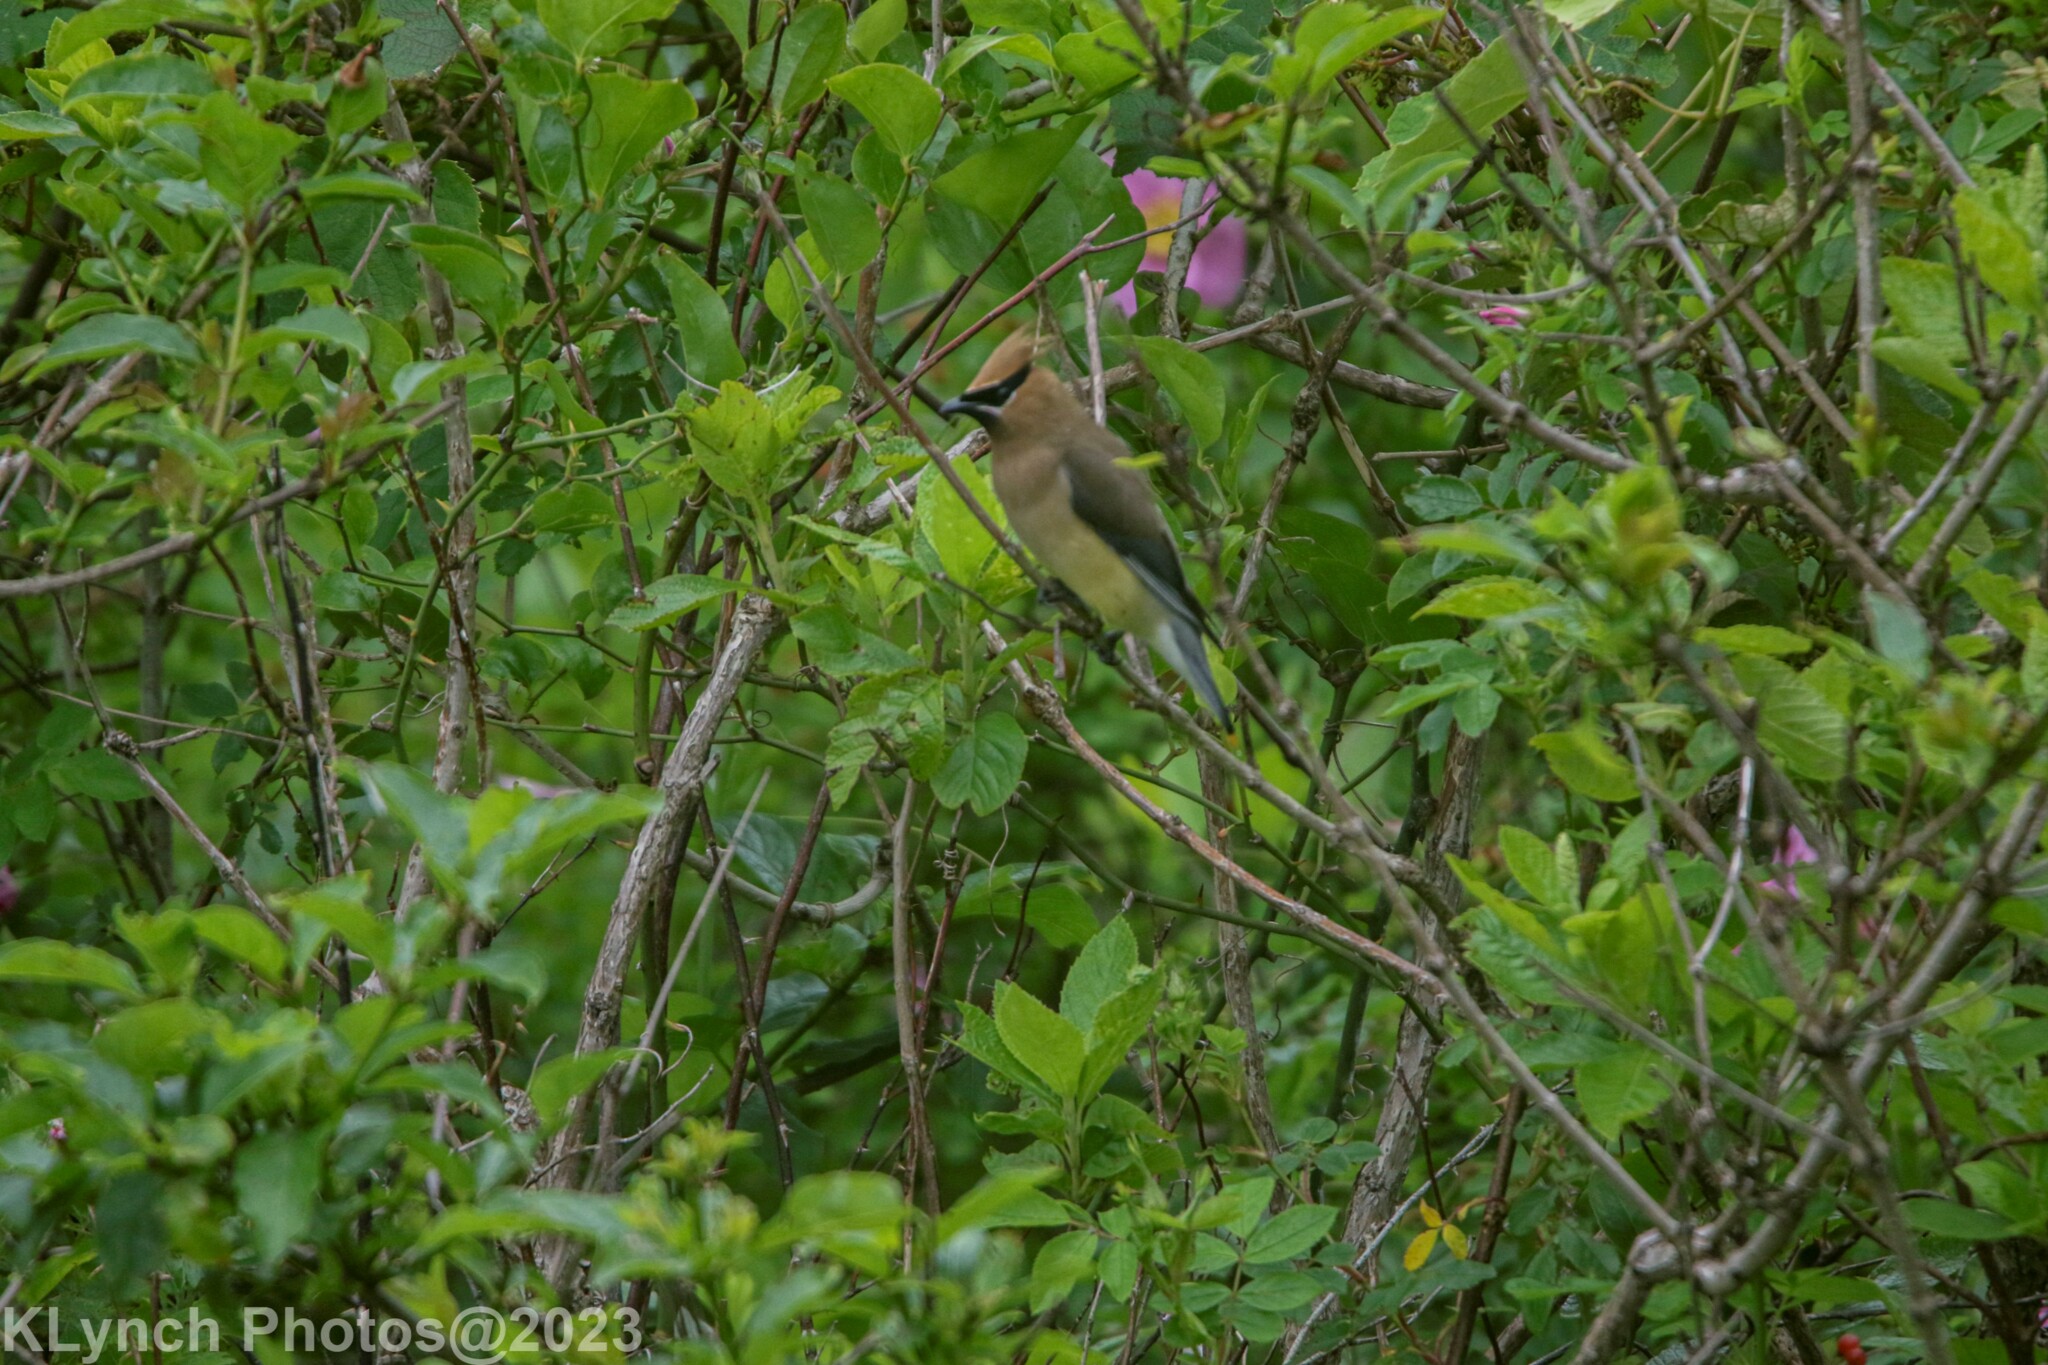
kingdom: Animalia
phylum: Chordata
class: Aves
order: Passeriformes
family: Bombycillidae
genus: Bombycilla
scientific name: Bombycilla cedrorum
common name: Cedar waxwing
